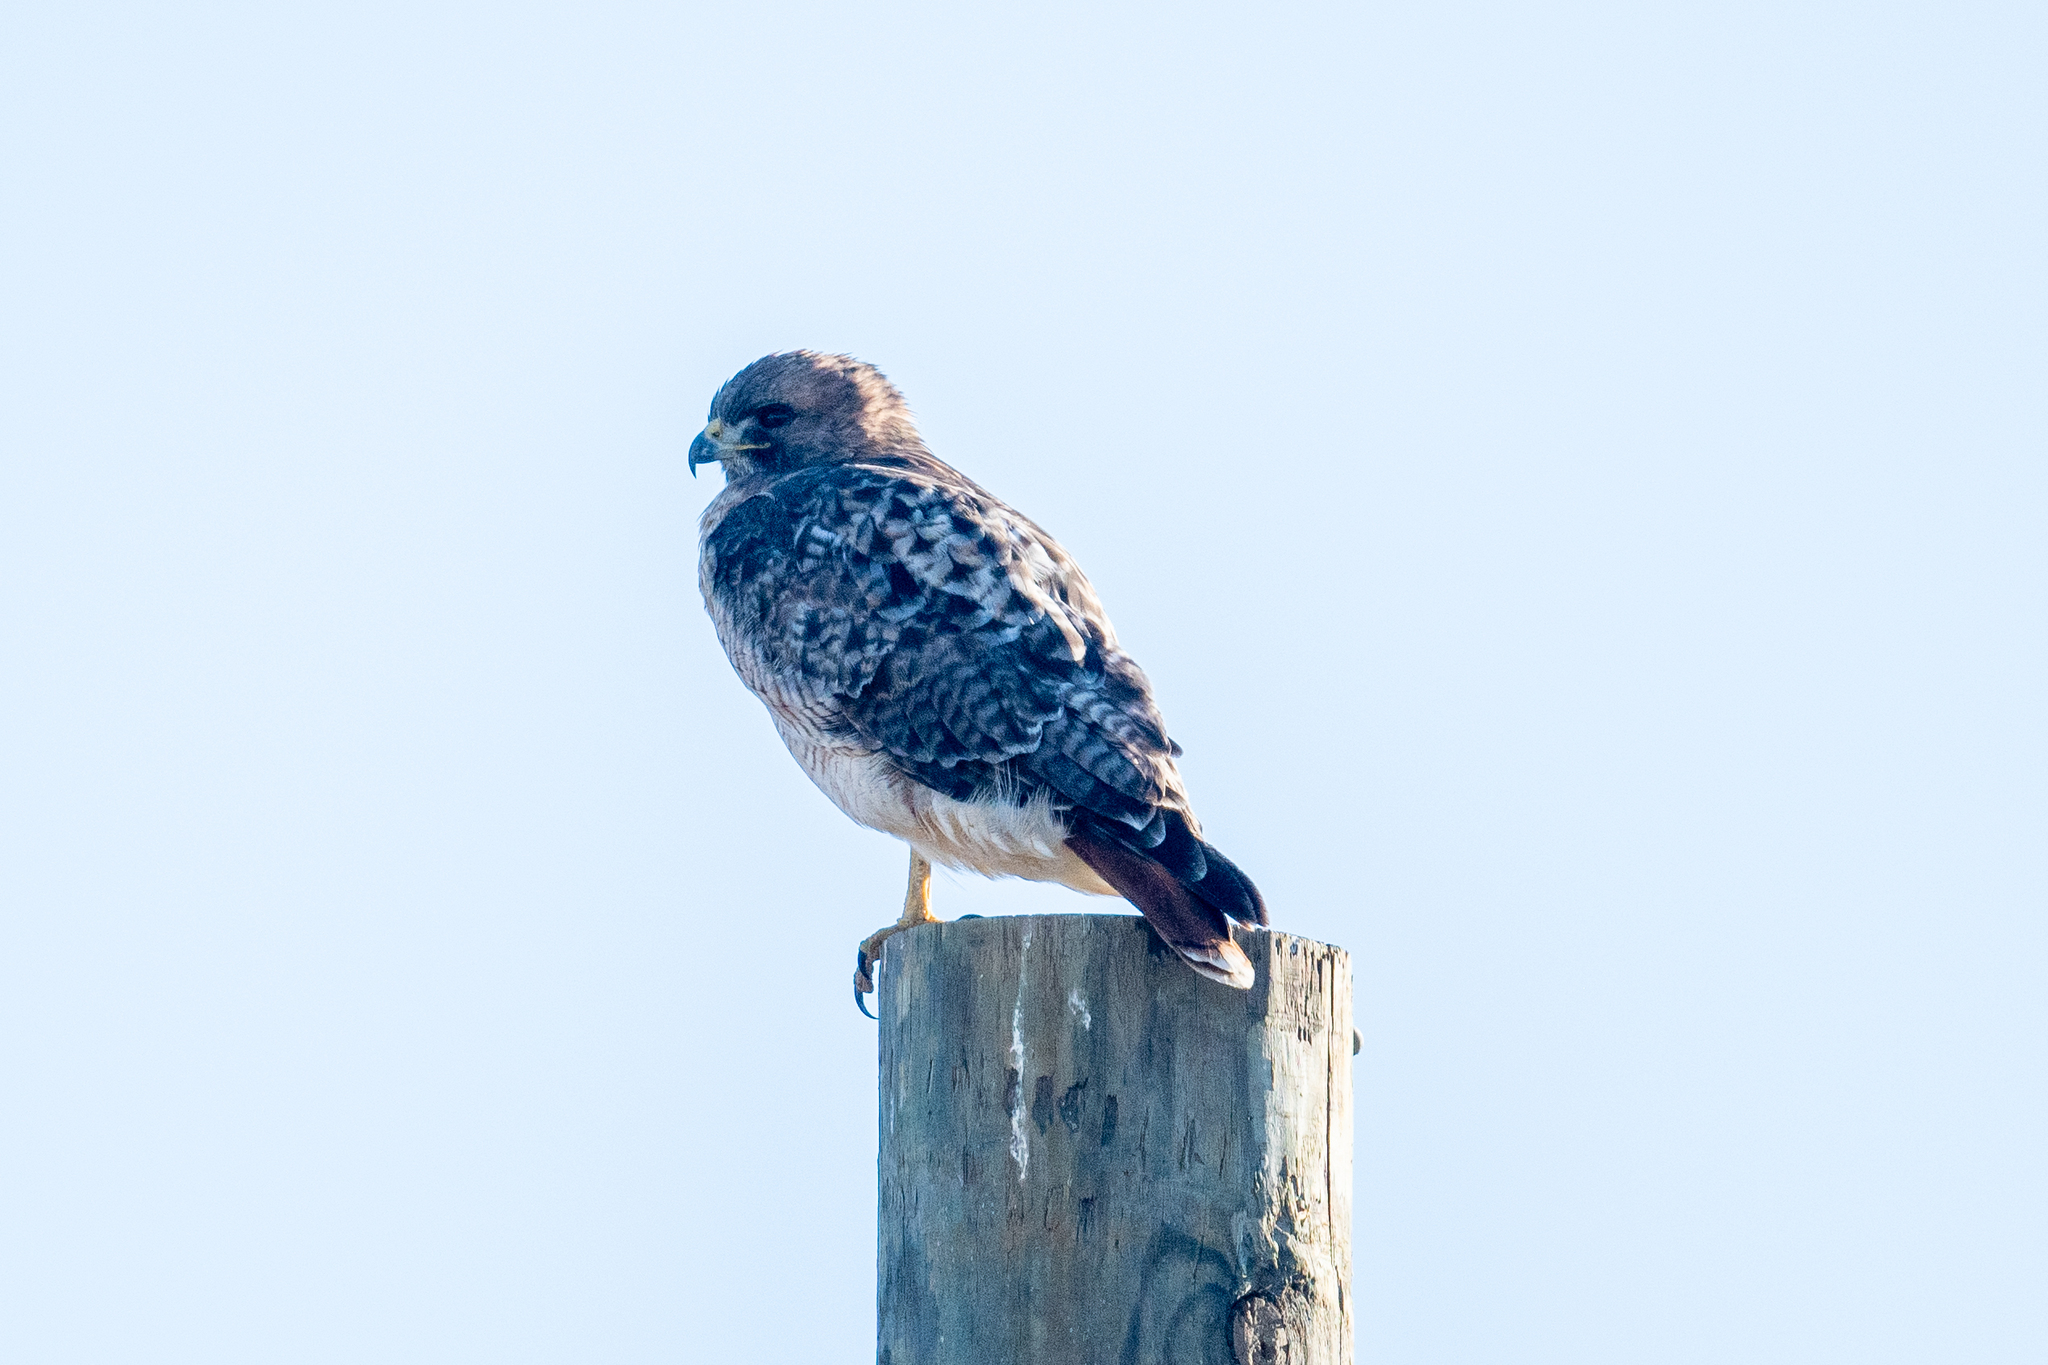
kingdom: Animalia
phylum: Chordata
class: Aves
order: Accipitriformes
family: Accipitridae
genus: Buteo
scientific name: Buteo jamaicensis
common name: Red-tailed hawk
